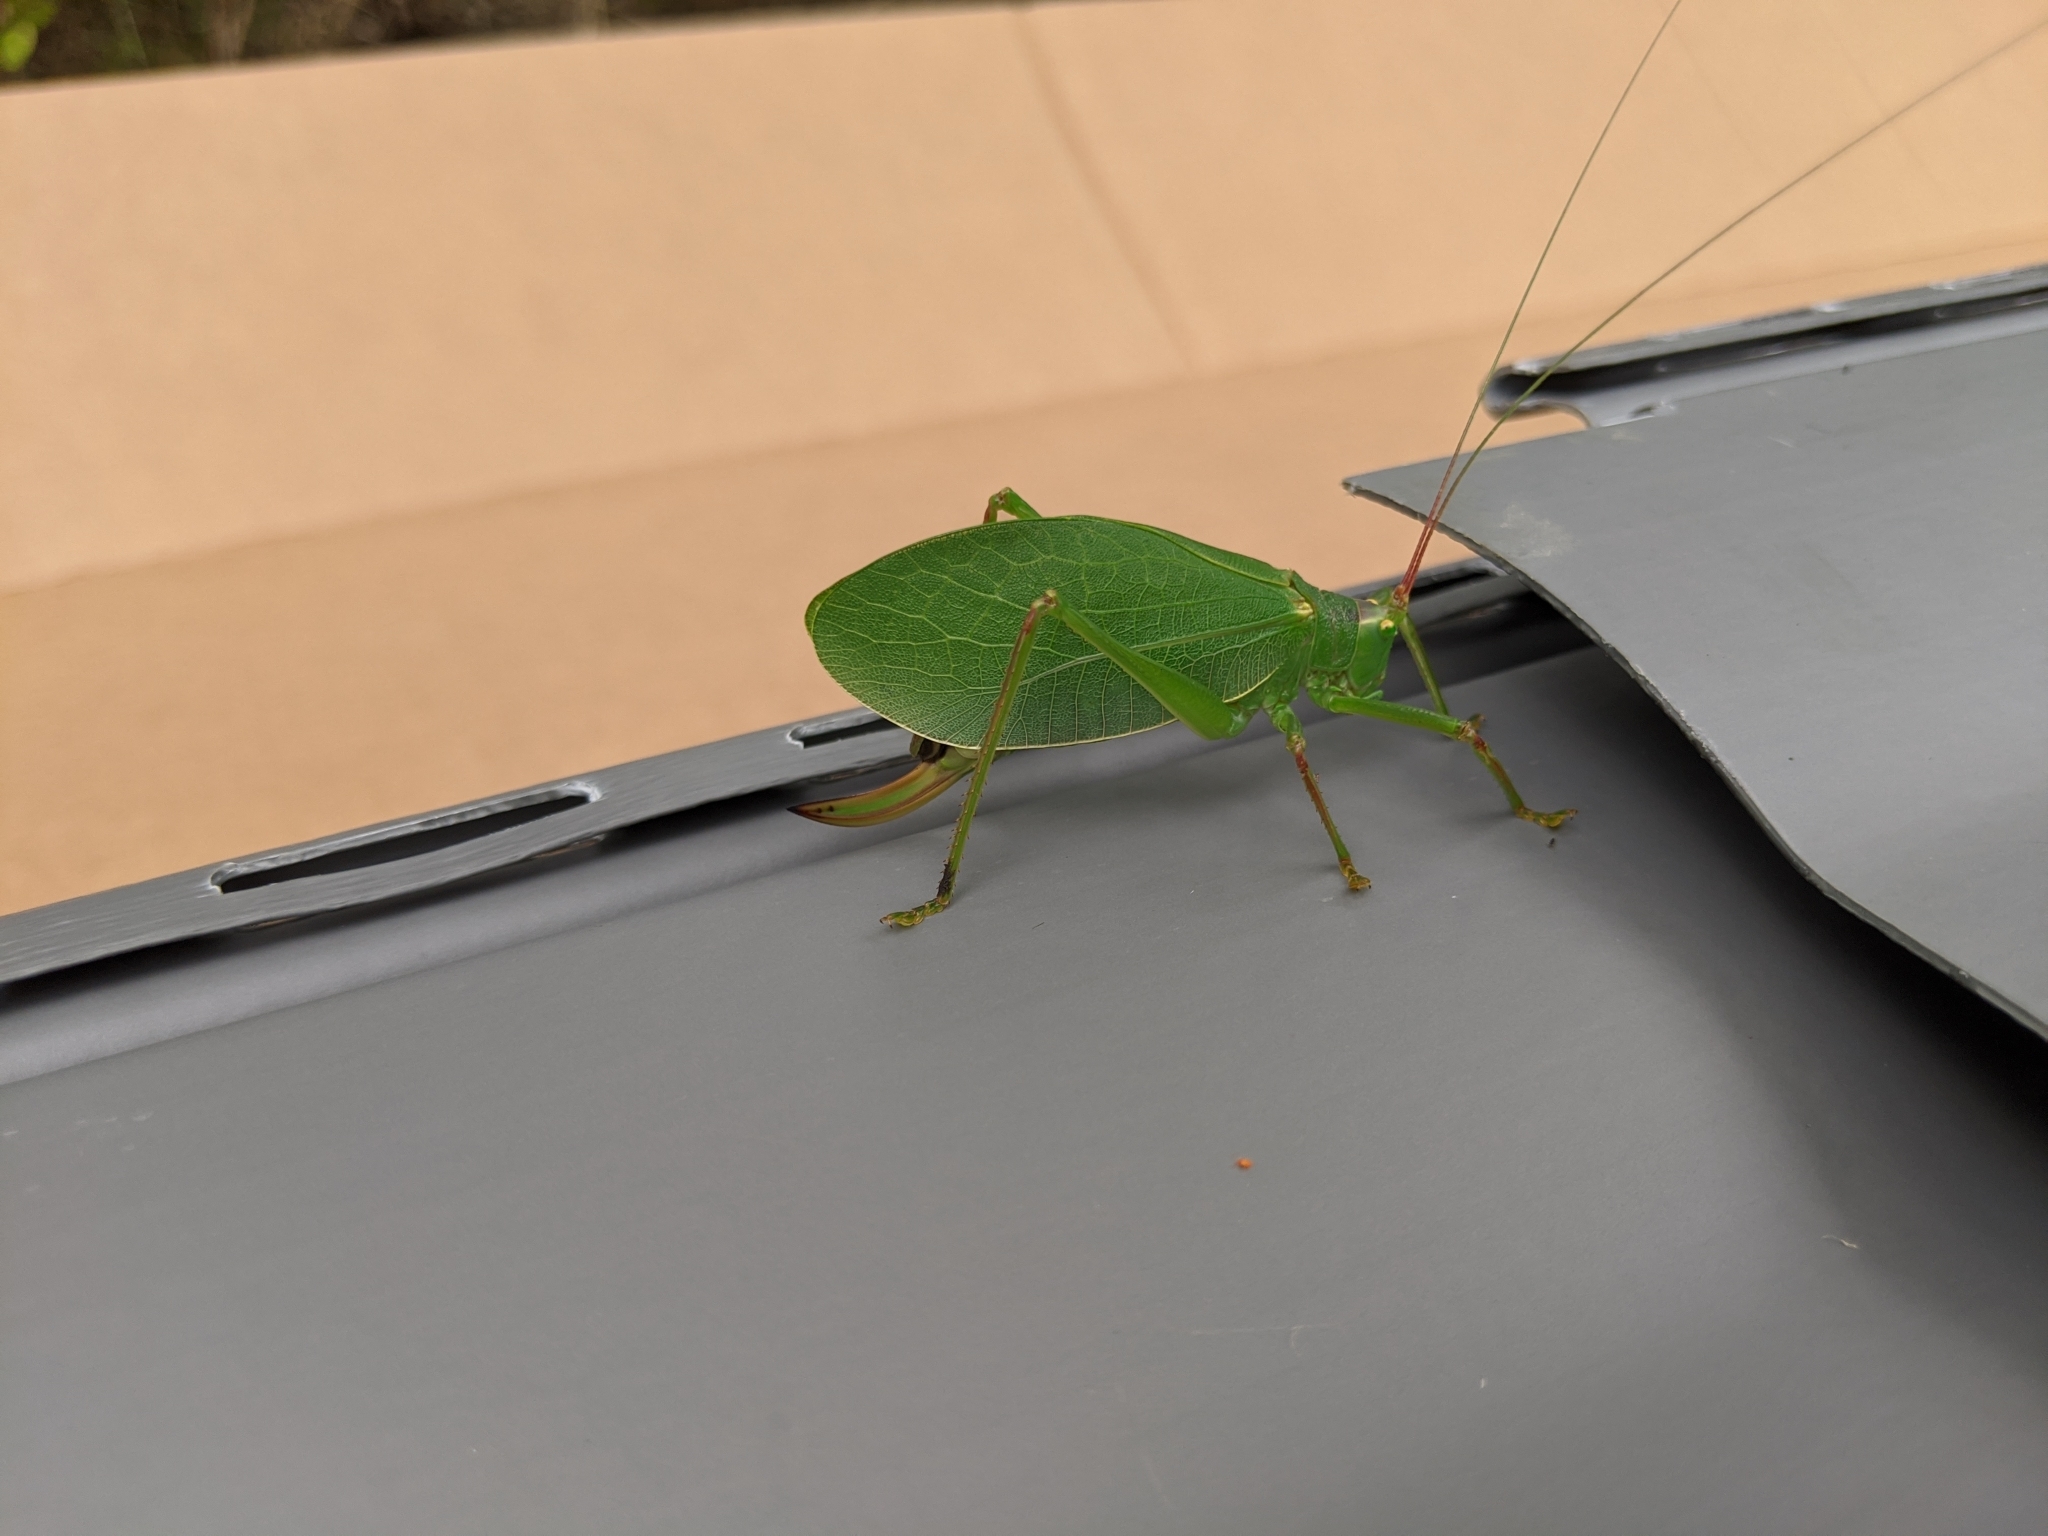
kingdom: Animalia
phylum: Arthropoda
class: Insecta
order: Orthoptera
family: Tettigoniidae
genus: Pterophylla
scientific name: Pterophylla camellifolia
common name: Common true katydid
